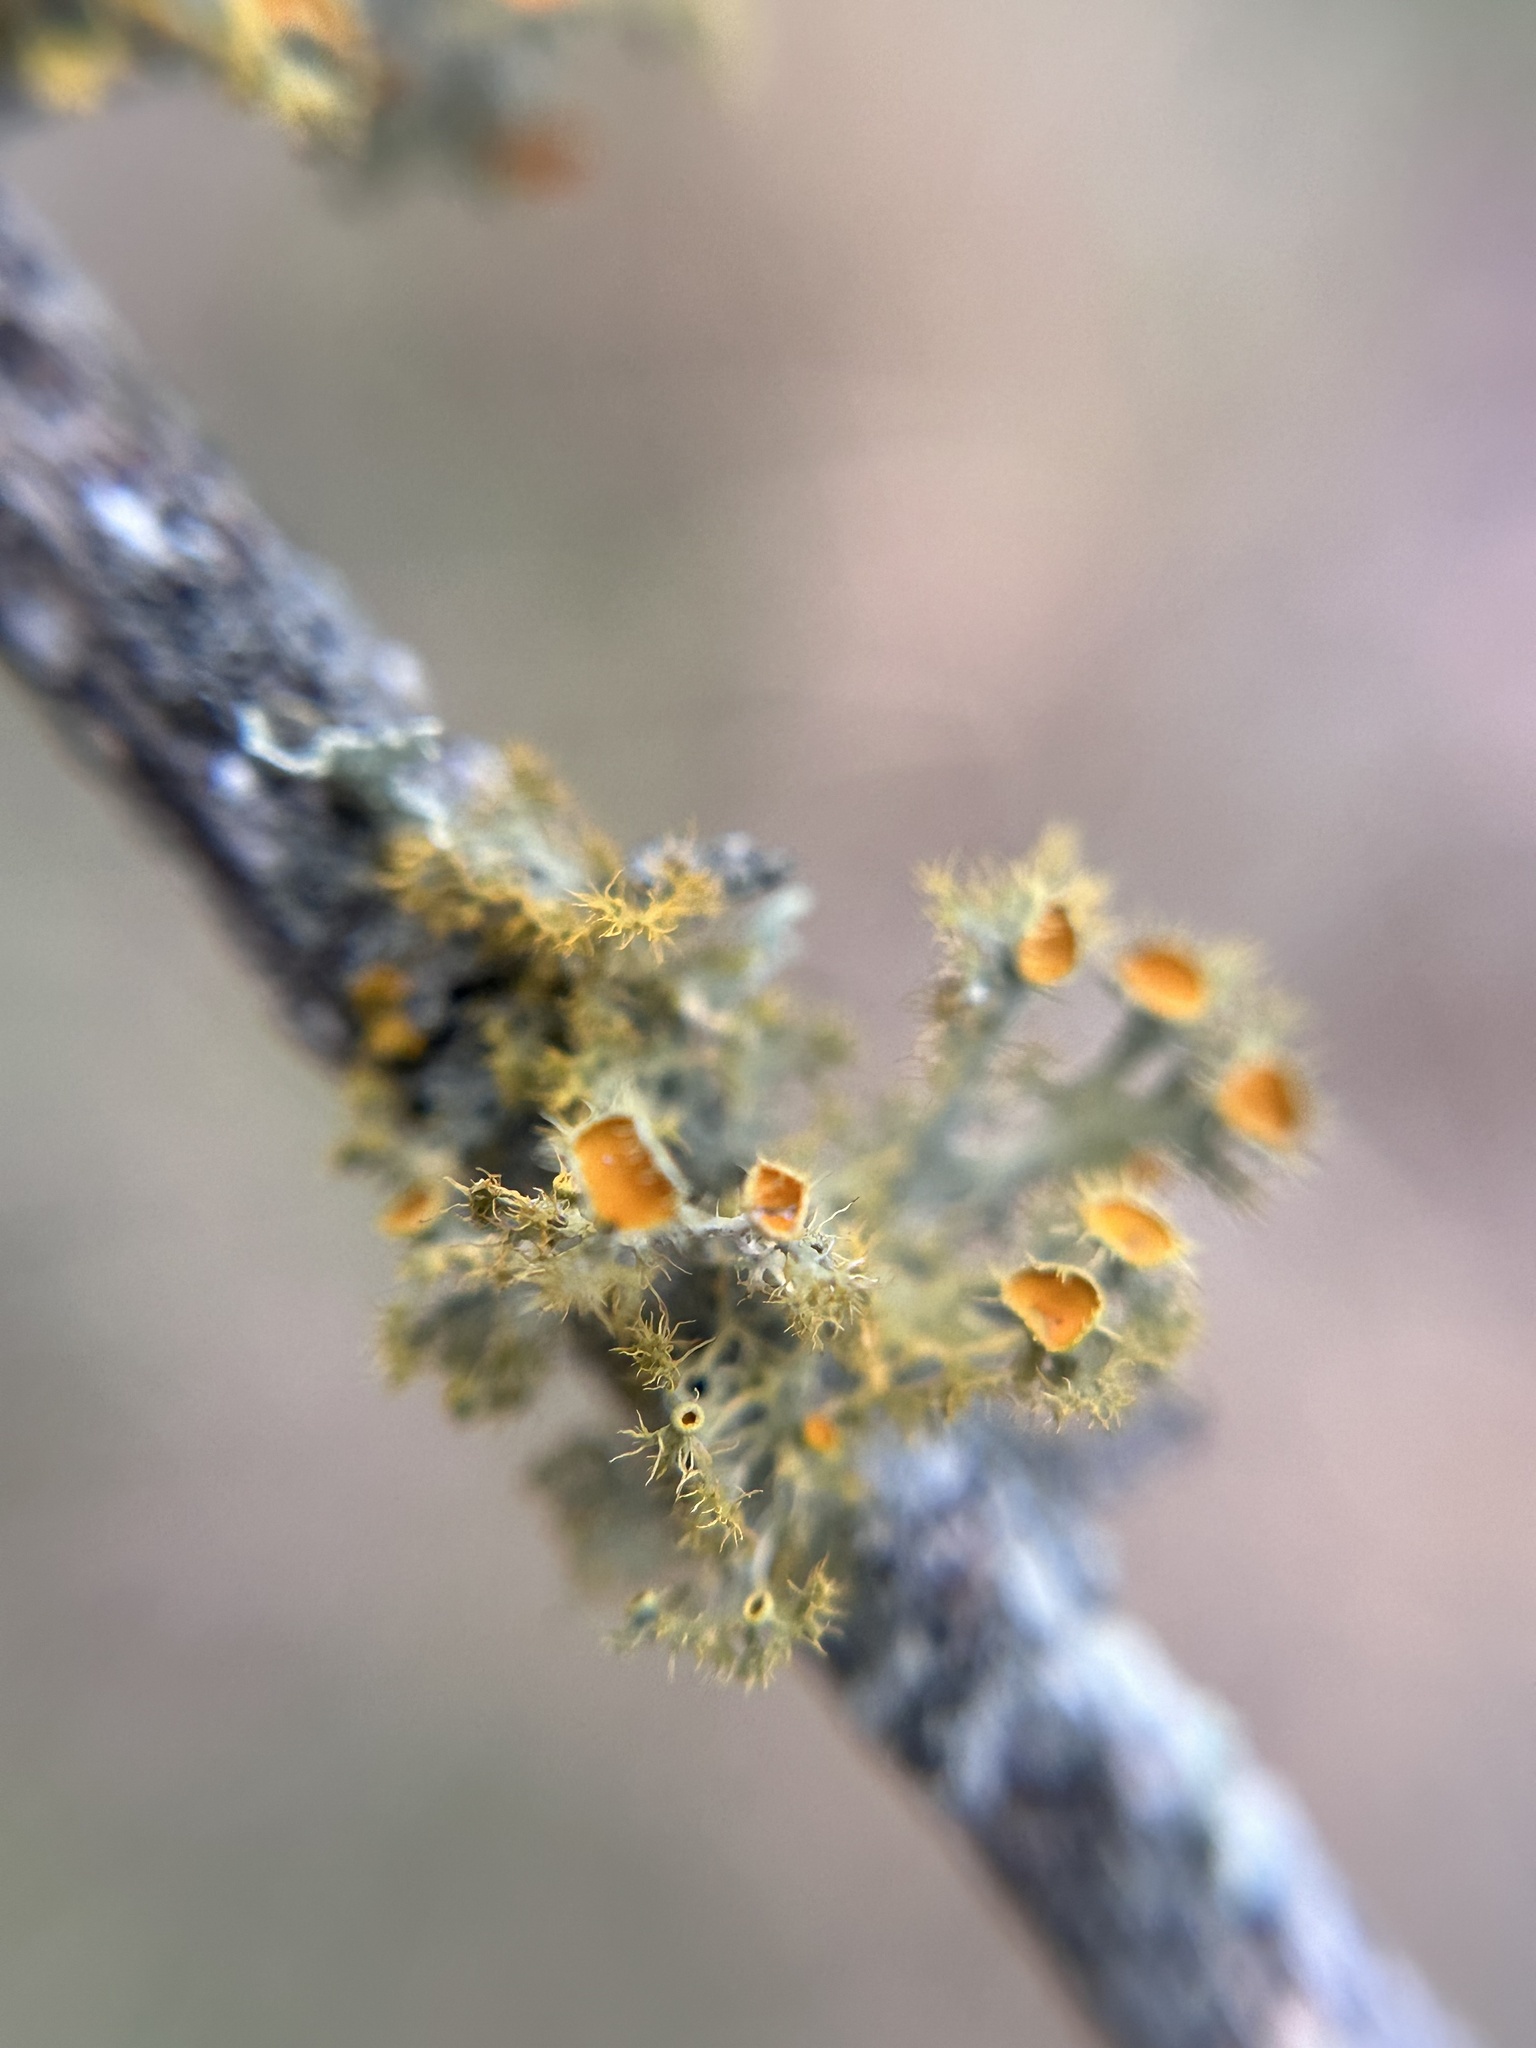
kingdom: Fungi
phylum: Ascomycota
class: Lecanoromycetes
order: Teloschistales
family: Teloschistaceae
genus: Niorma
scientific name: Niorma chrysophthalma
